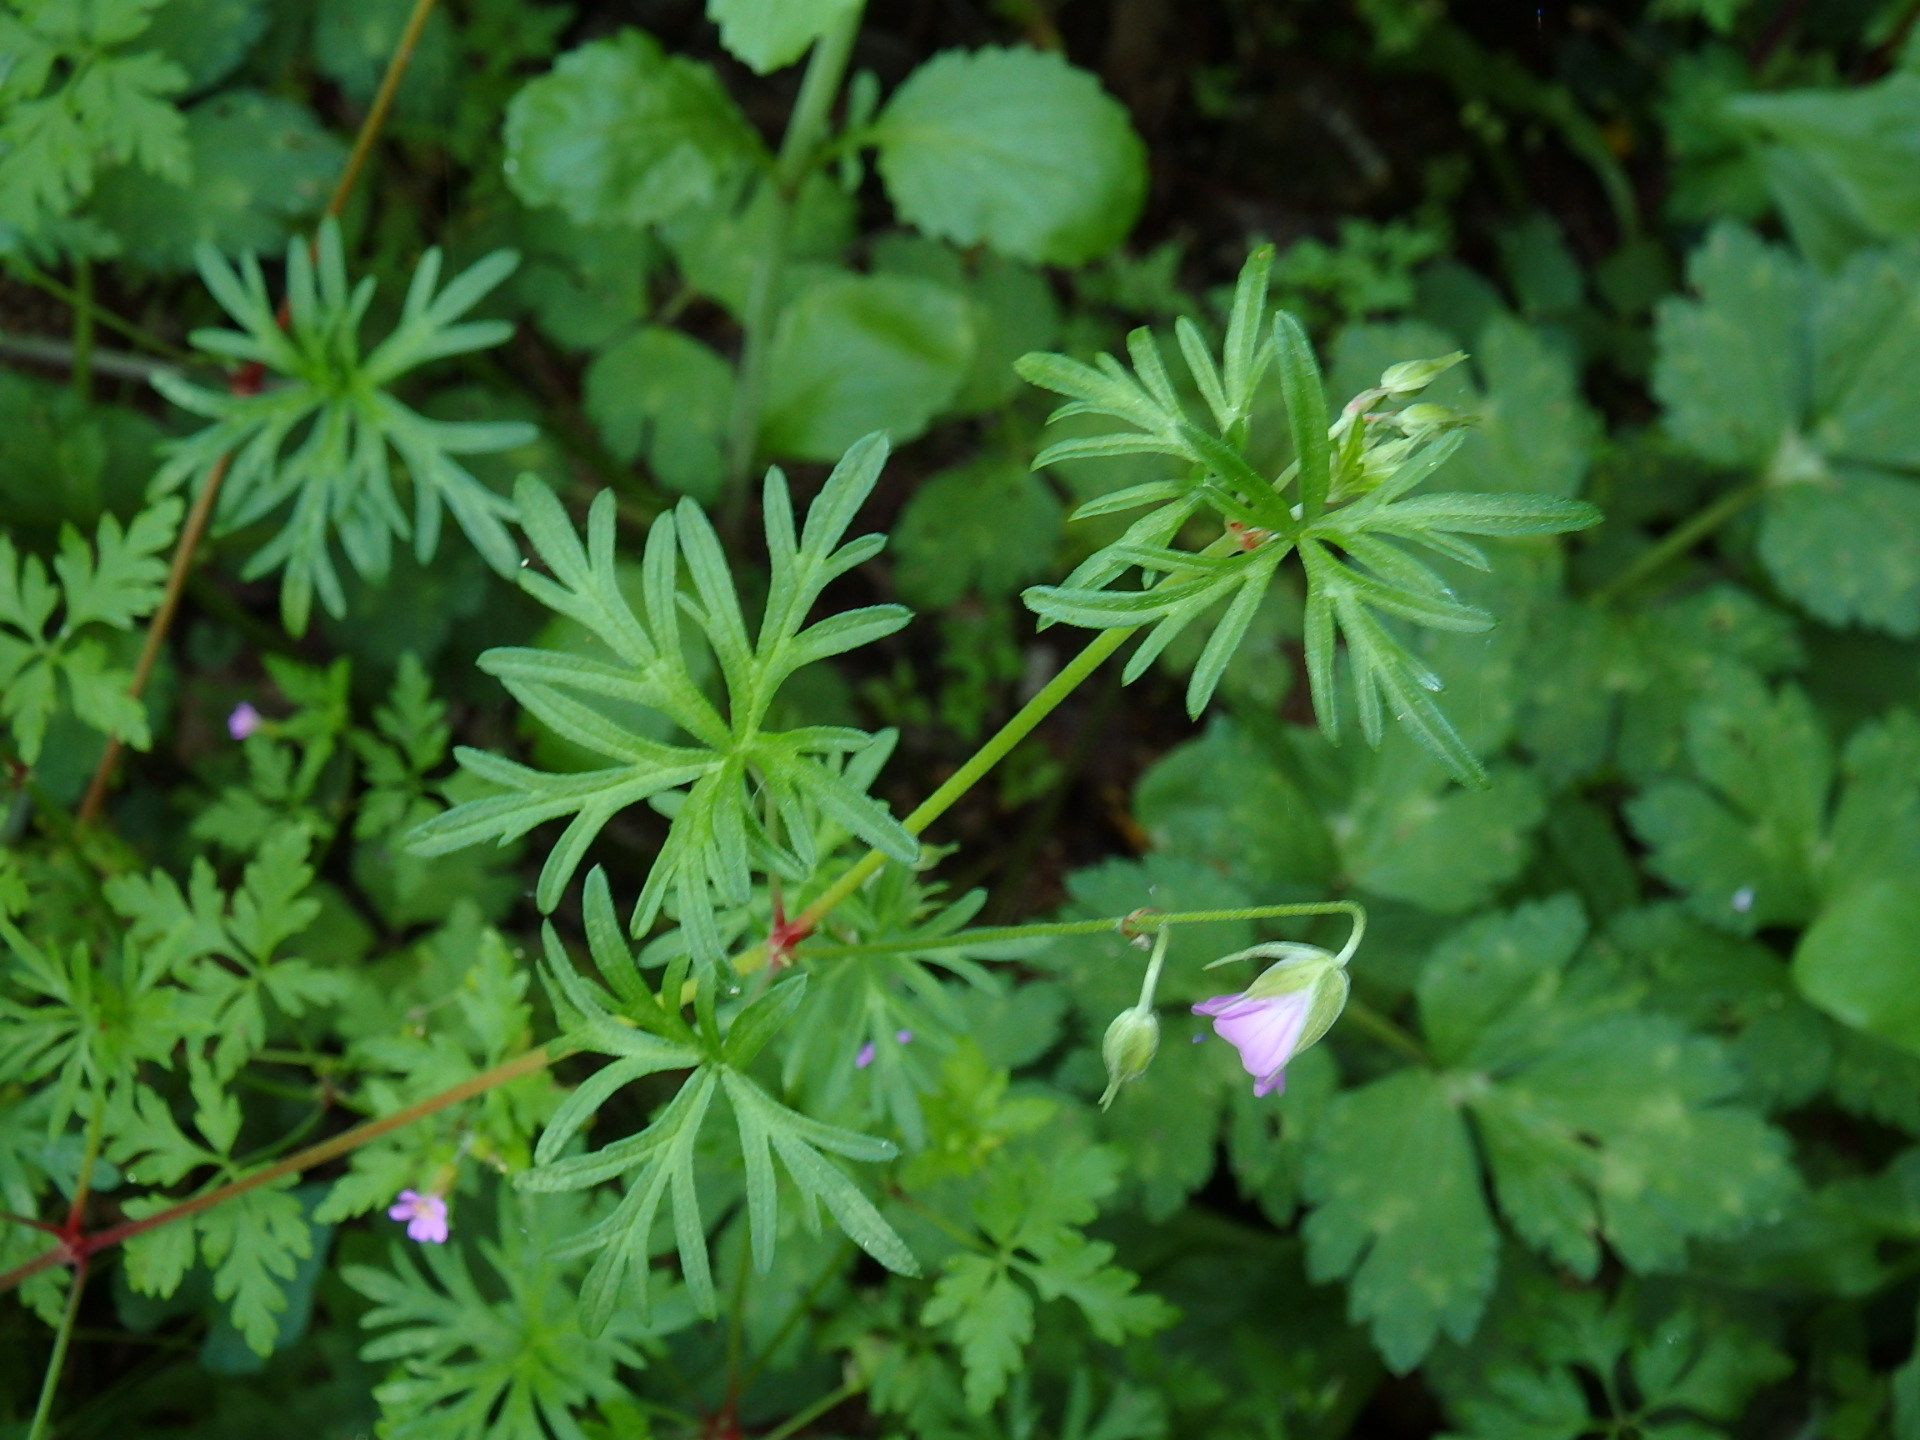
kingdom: Plantae
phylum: Tracheophyta
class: Magnoliopsida
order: Geraniales
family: Geraniaceae
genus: Geranium
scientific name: Geranium columbinum
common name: Long-stalked crane's-bill
